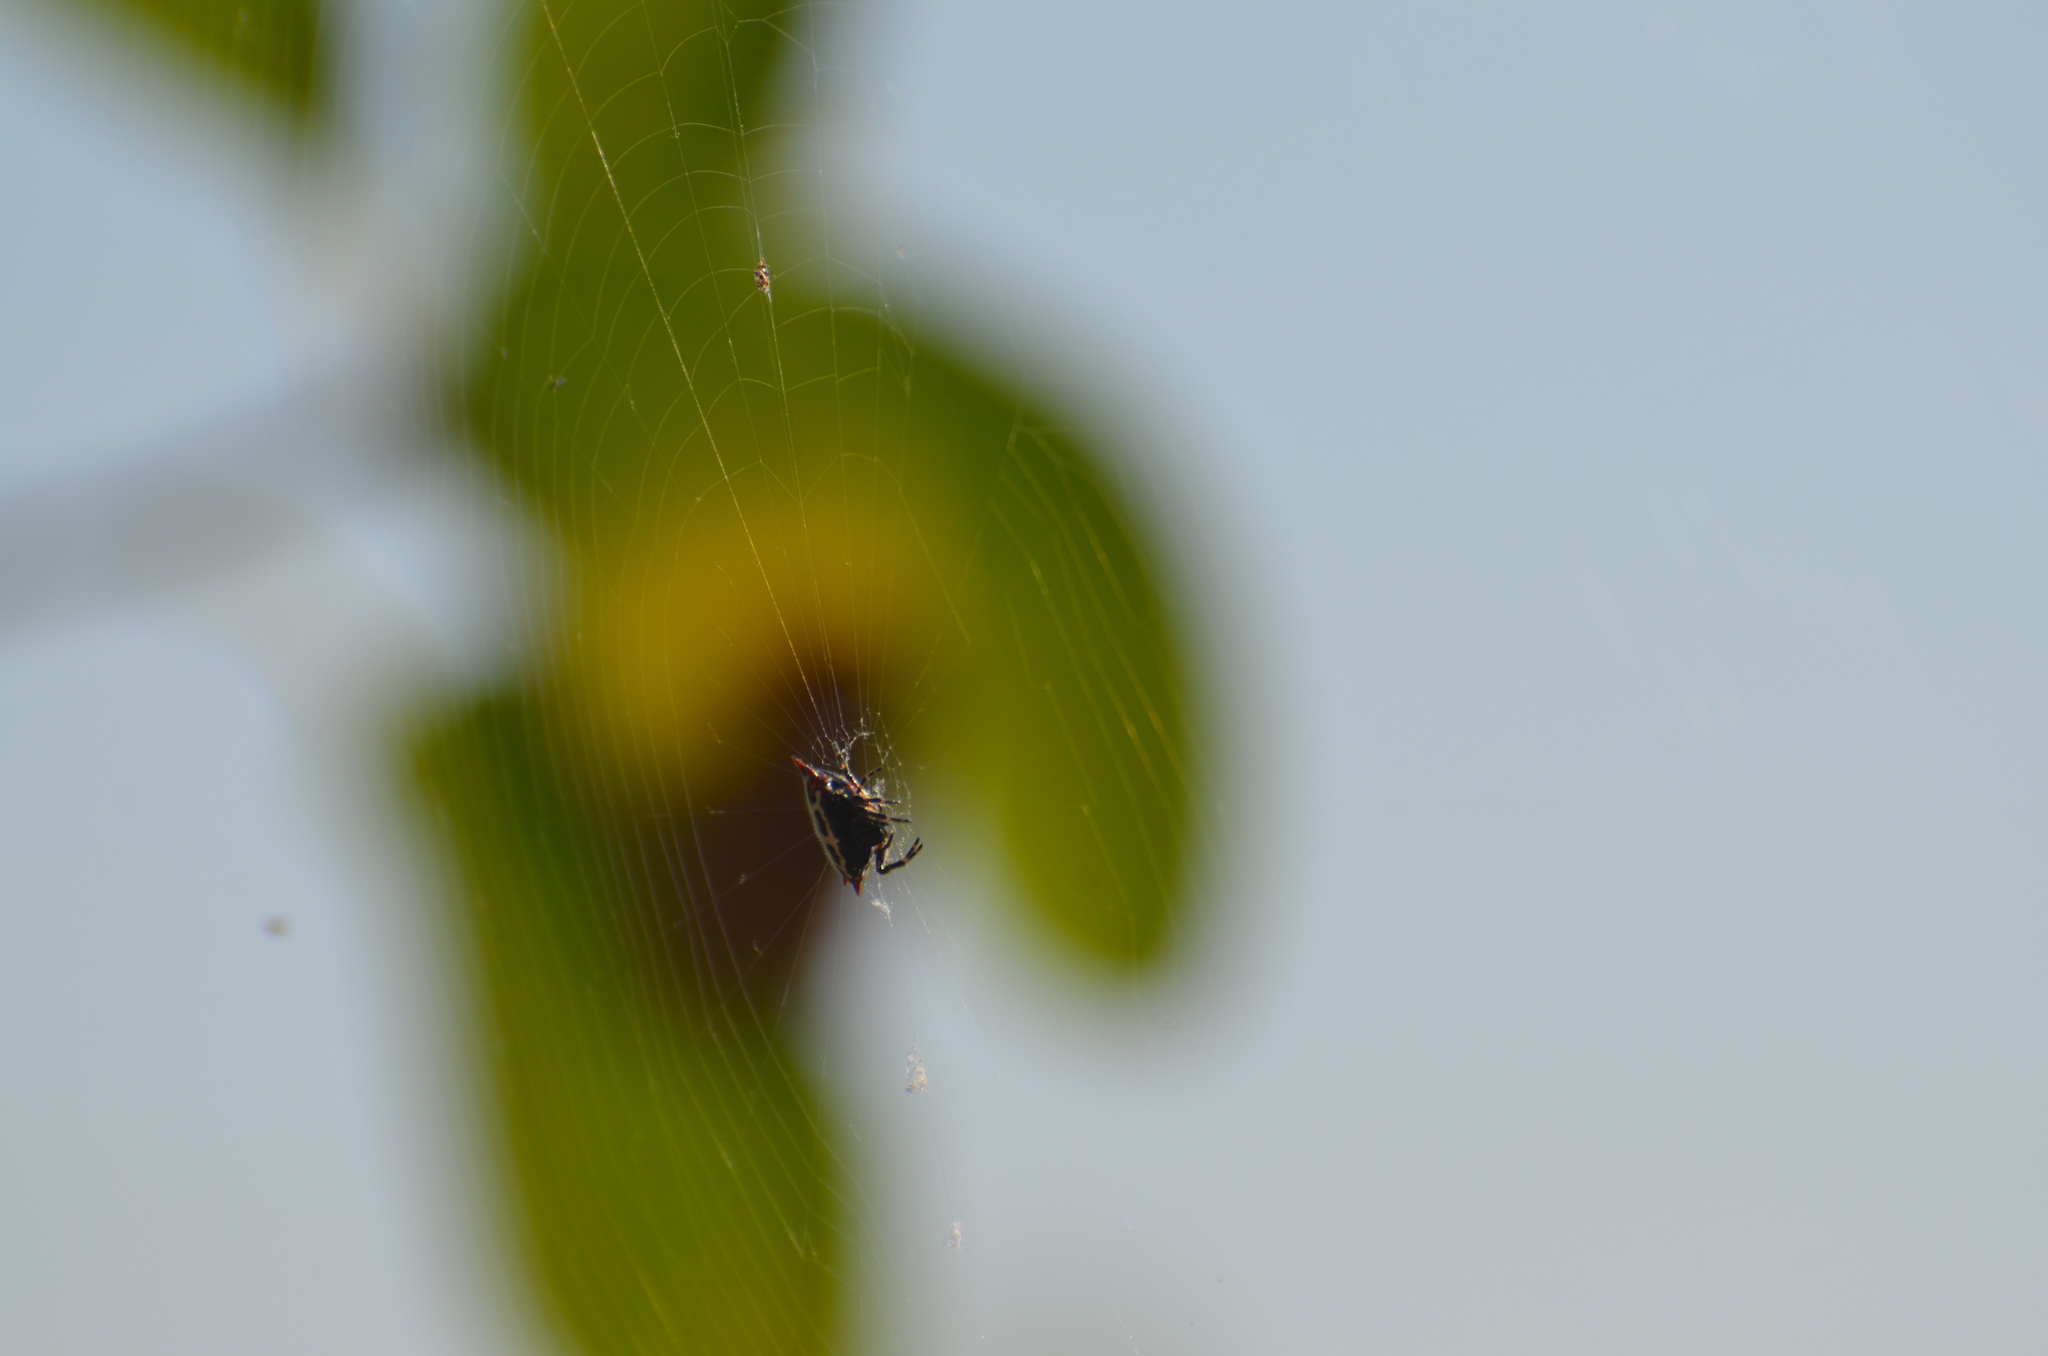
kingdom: Animalia
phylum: Arthropoda
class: Arachnida
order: Araneae
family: Araneidae
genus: Gasteracantha
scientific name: Gasteracantha cancriformis
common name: Orb weavers
